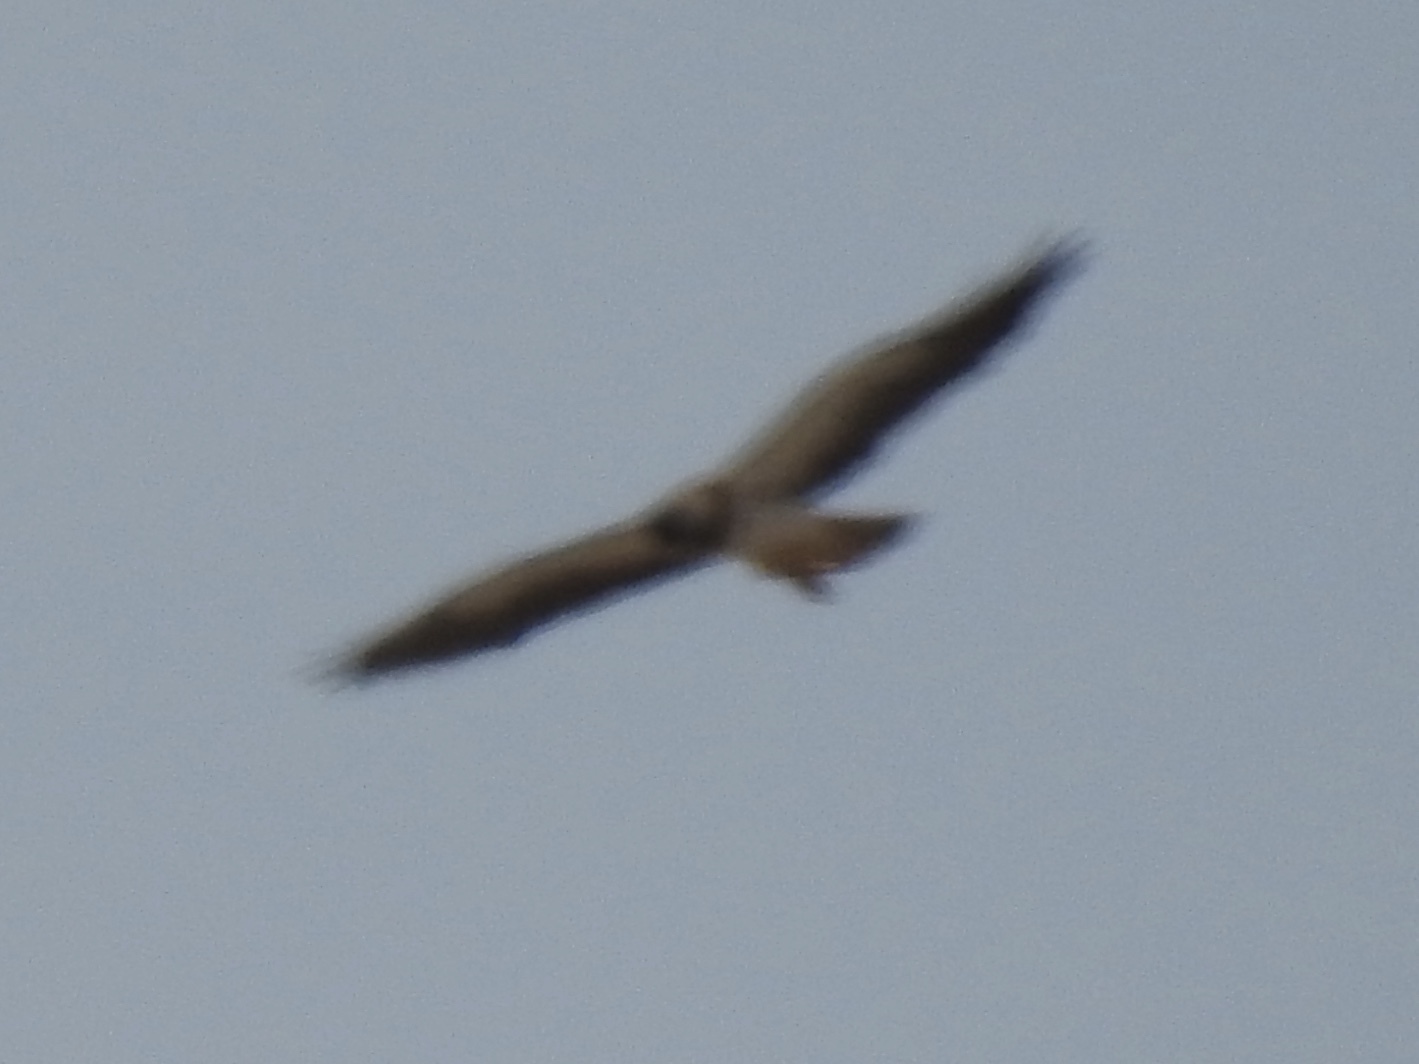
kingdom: Animalia
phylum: Chordata
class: Aves
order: Accipitriformes
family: Accipitridae
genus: Buteo
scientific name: Buteo swainsoni
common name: Swainson's hawk
